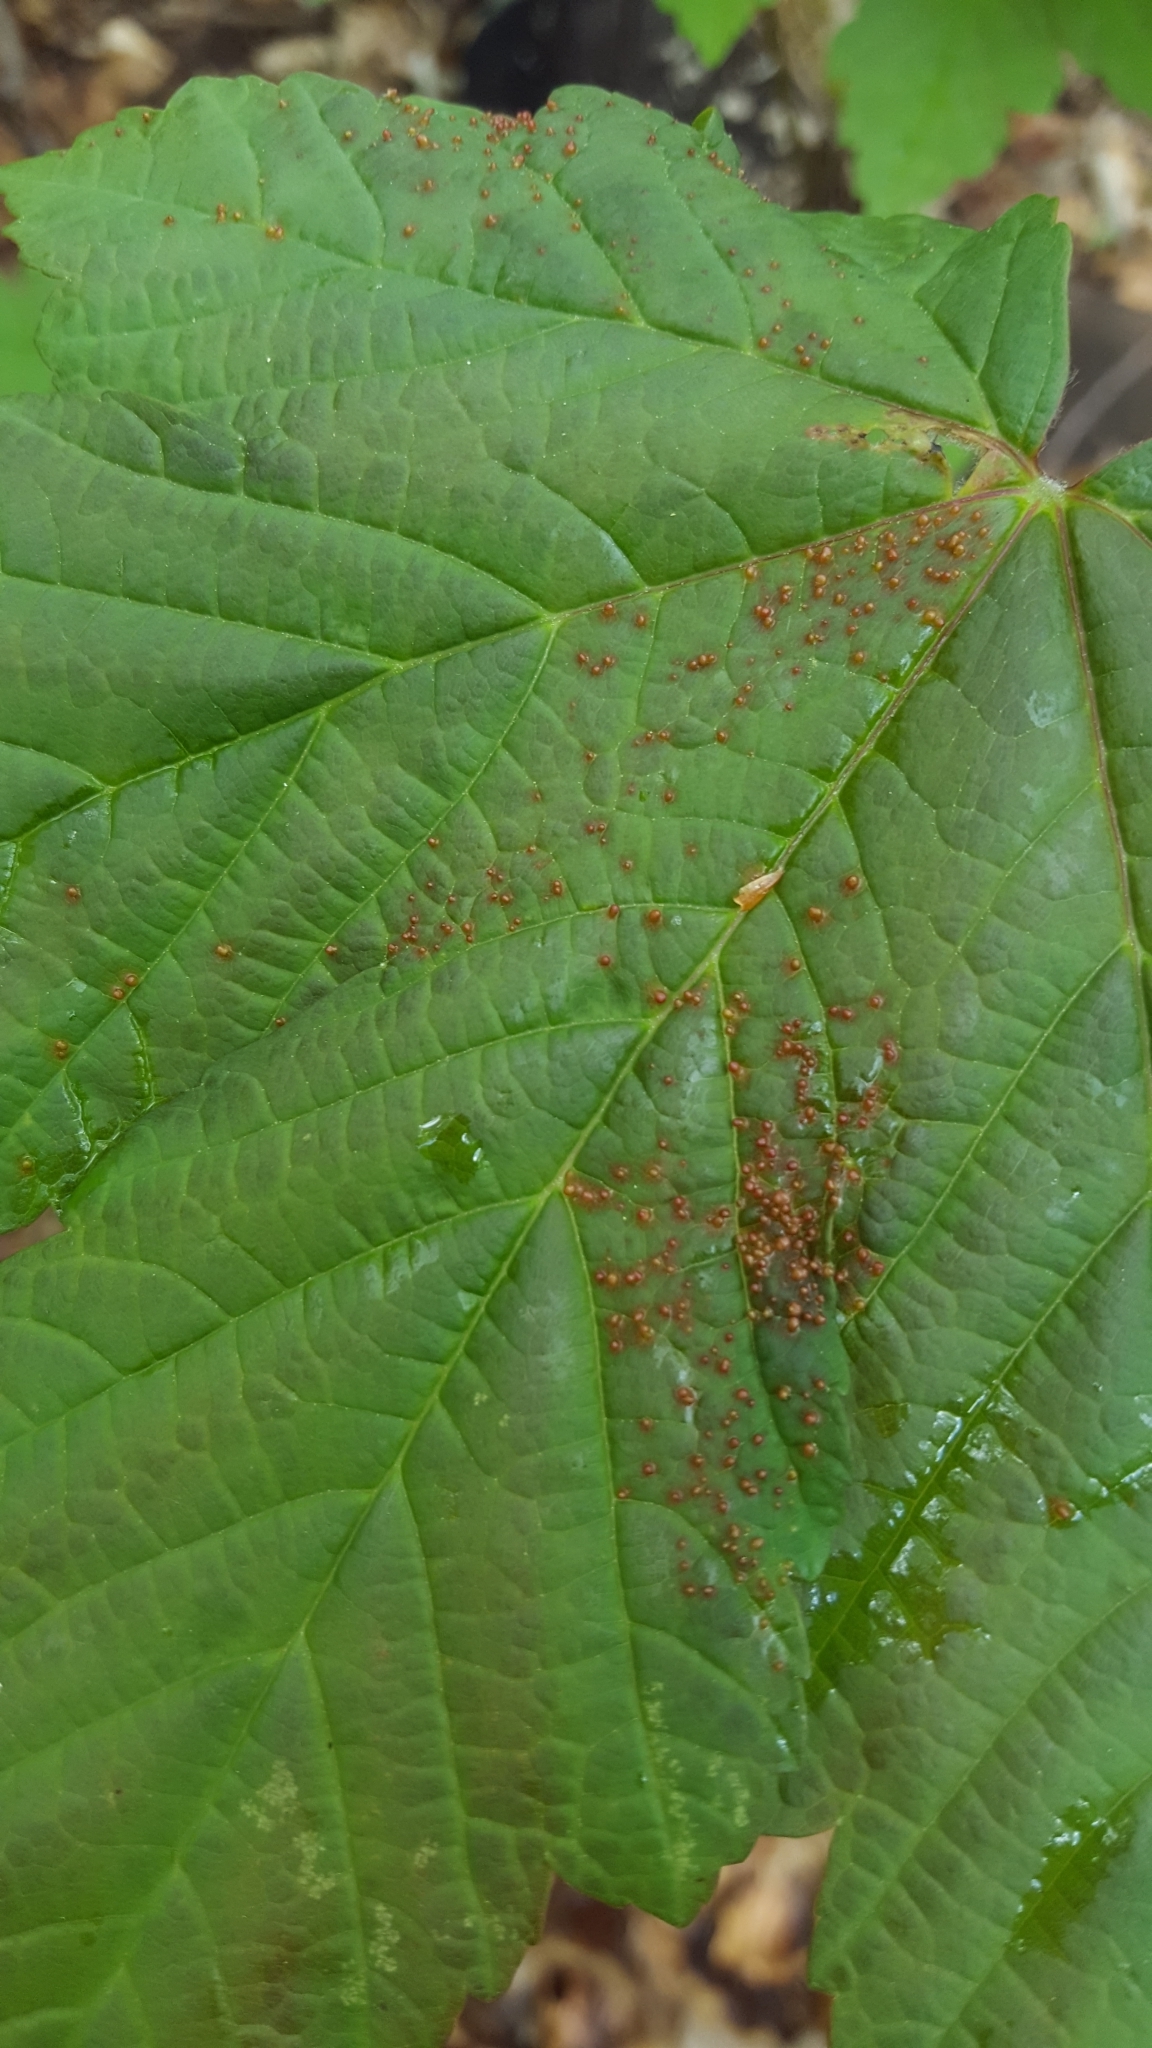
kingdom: Animalia
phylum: Arthropoda
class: Arachnida
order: Trombidiformes
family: Eriophyidae
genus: Aceria
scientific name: Aceria cephaloneus
